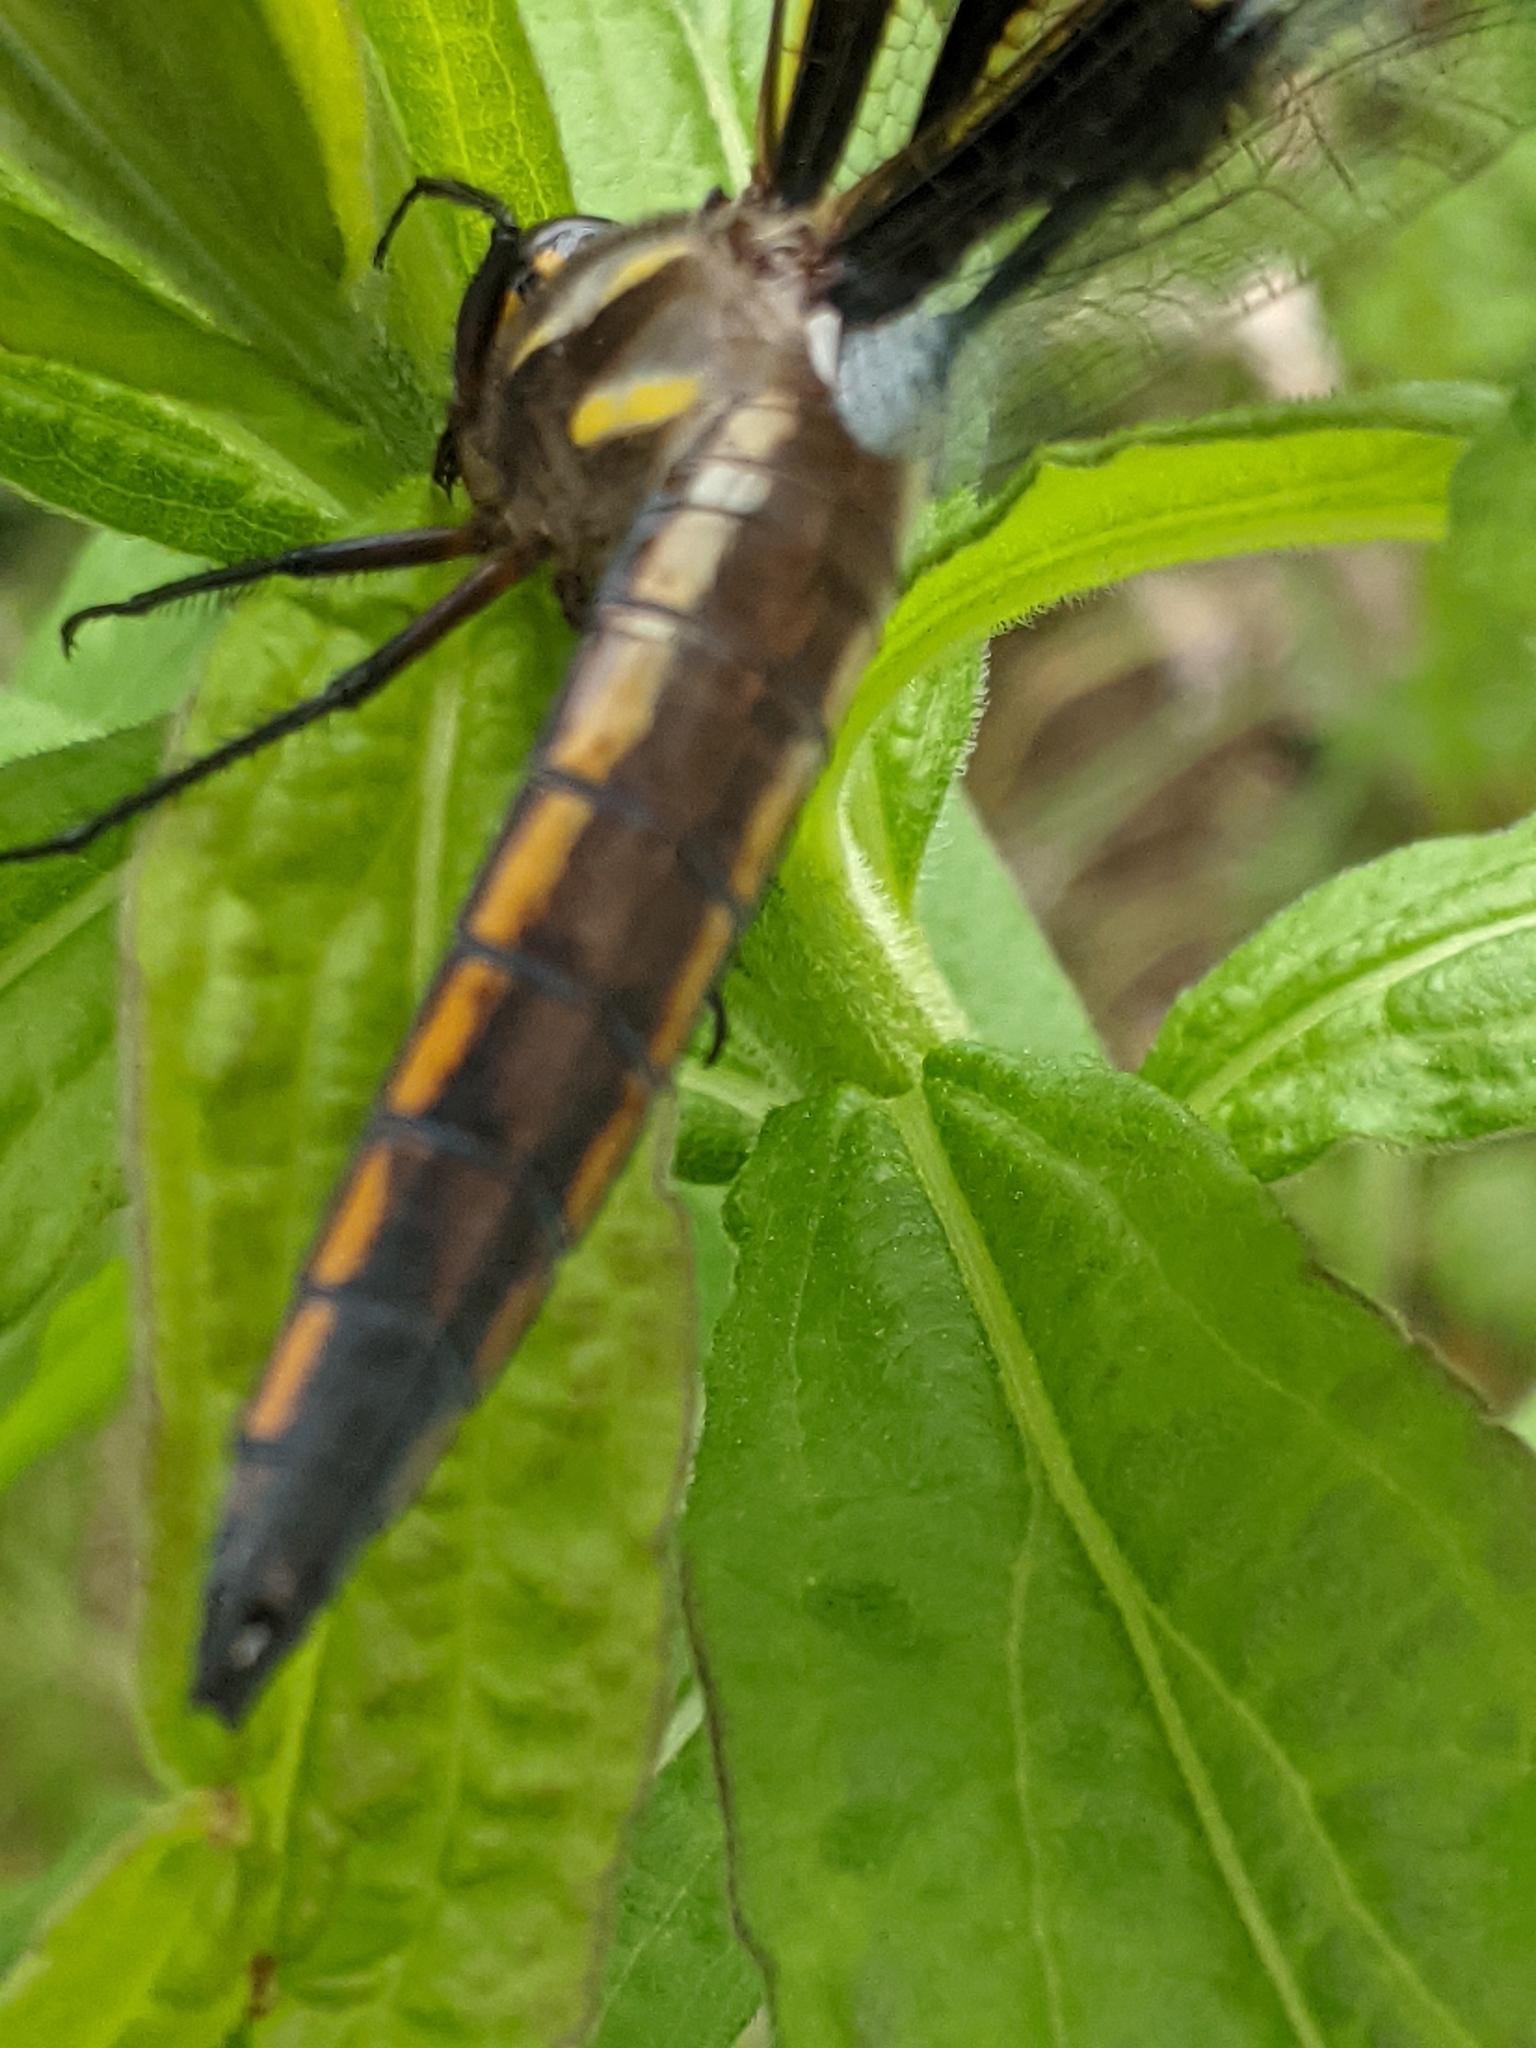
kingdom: Animalia
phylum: Arthropoda
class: Insecta
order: Odonata
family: Libellulidae
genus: Libellula
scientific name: Libellula pulchella
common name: Twelve-spotted skimmer
